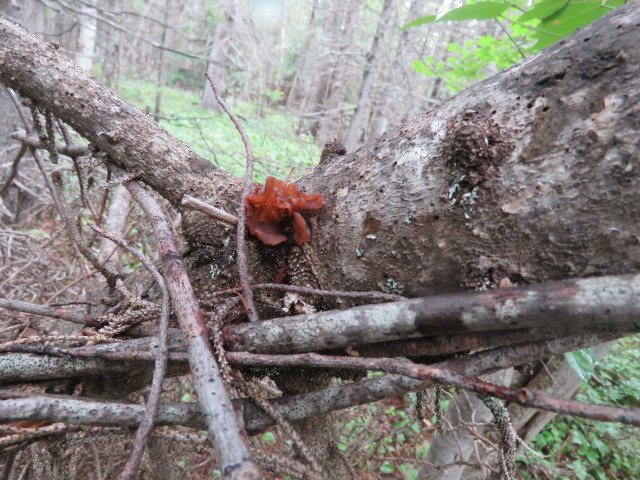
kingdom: Fungi
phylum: Basidiomycota
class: Tremellomycetes
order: Tremellales
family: Tremellaceae
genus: Phaeotremella
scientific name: Phaeotremella foliacea
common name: Leafy brain
